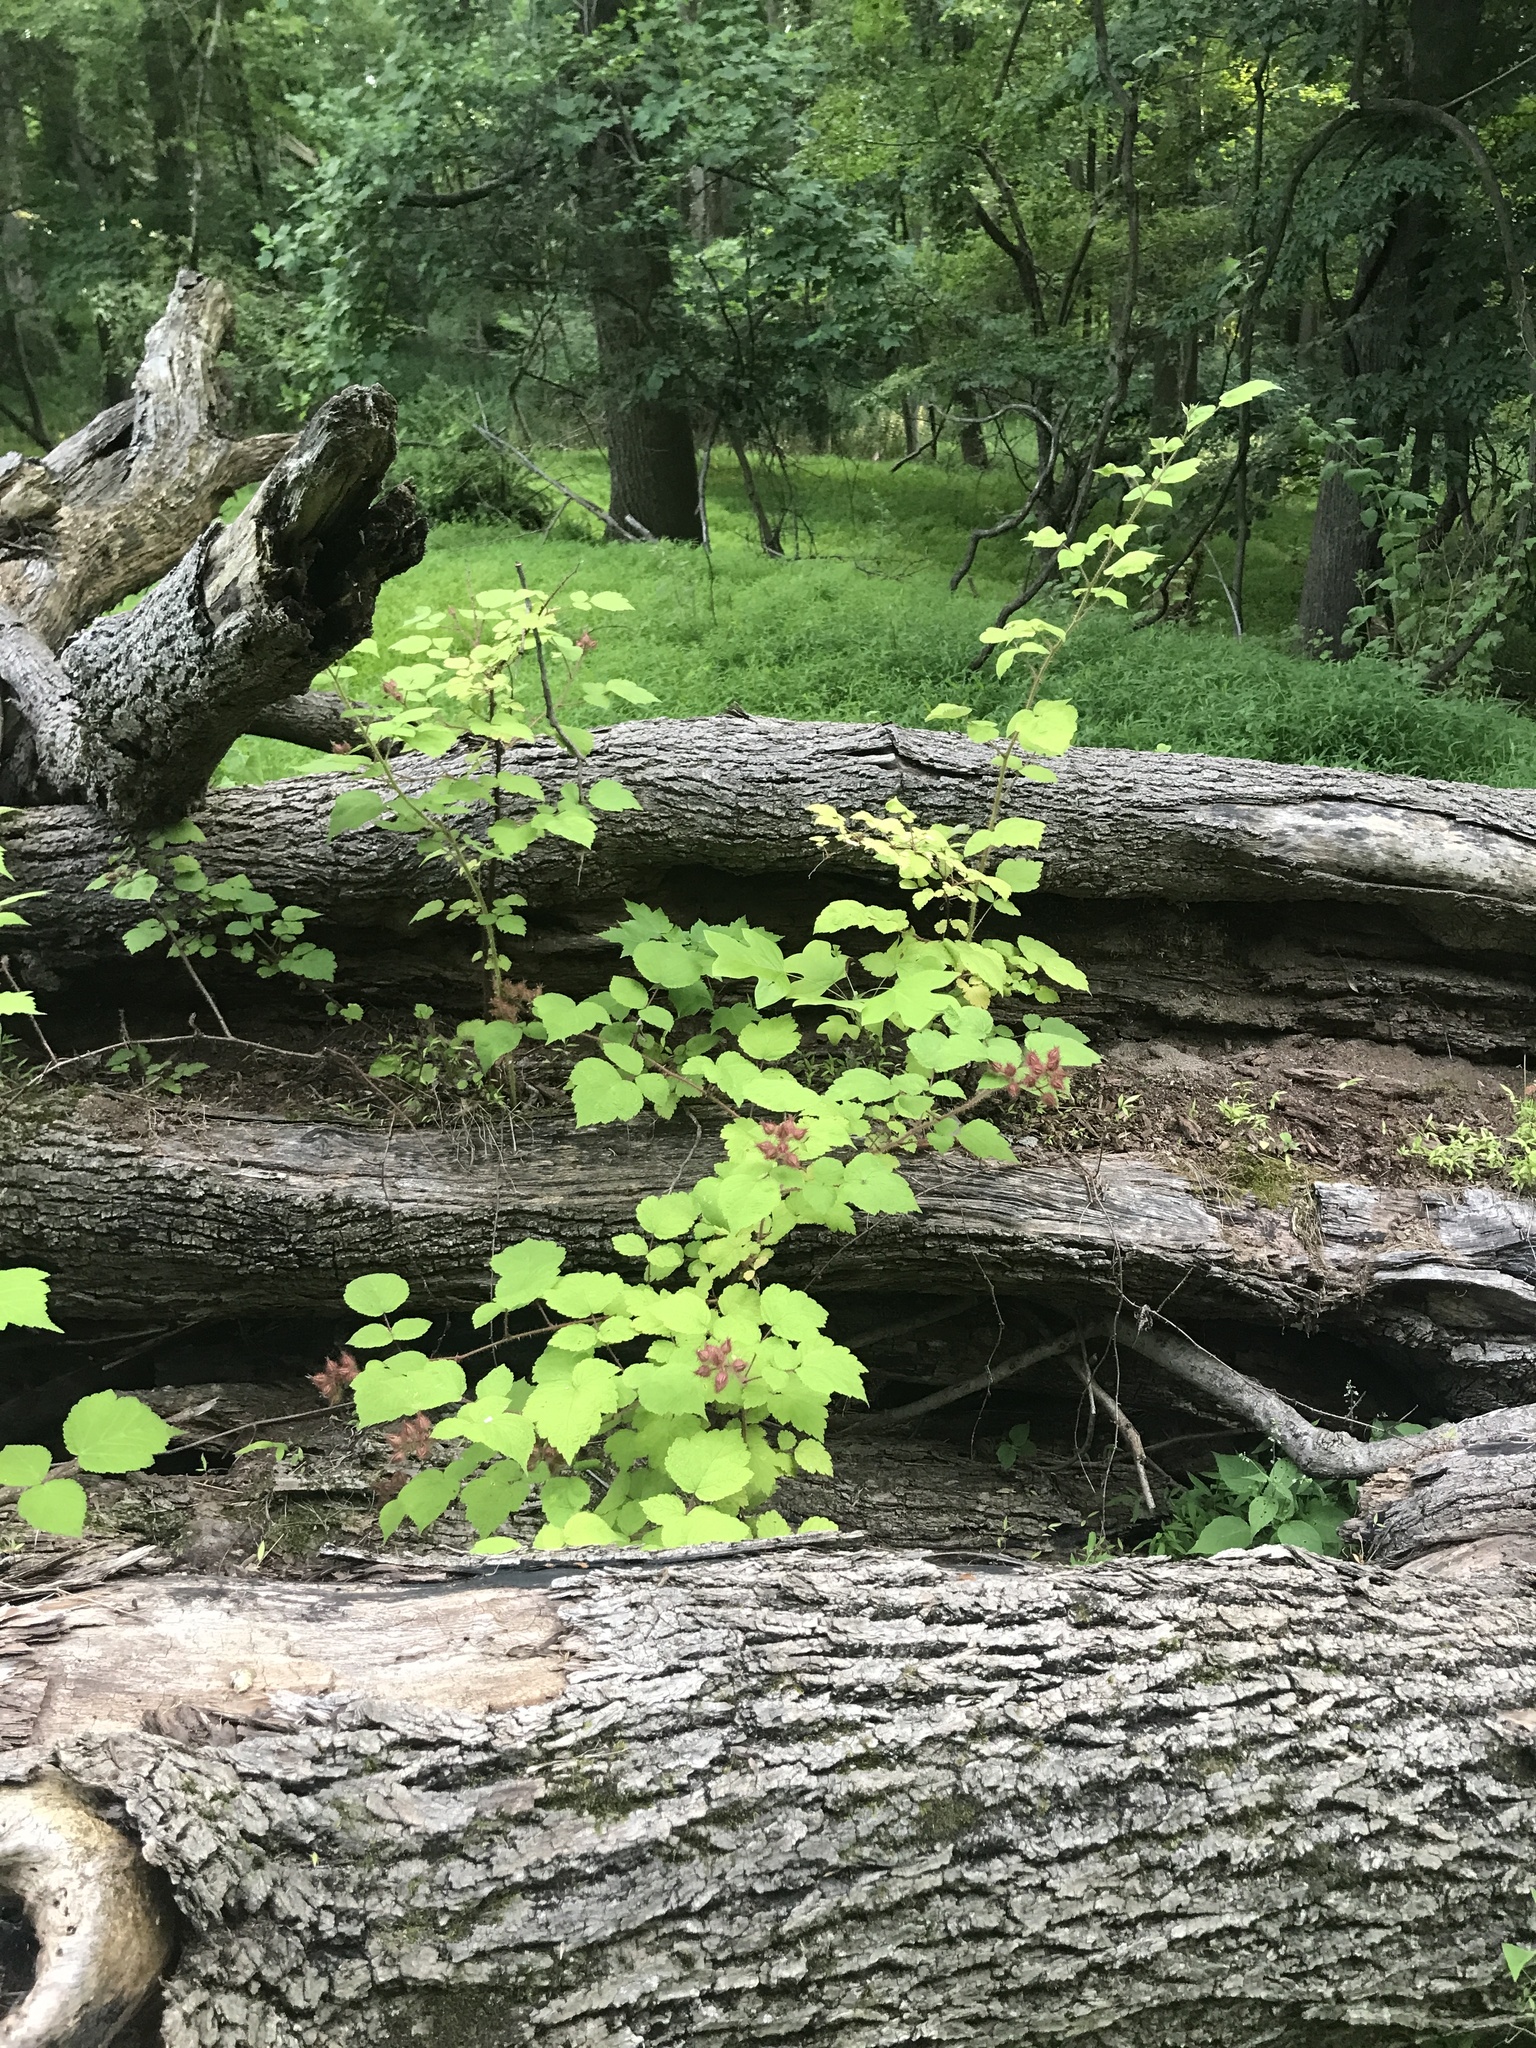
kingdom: Plantae
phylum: Tracheophyta
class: Magnoliopsida
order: Rosales
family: Rosaceae
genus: Rubus
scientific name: Rubus phoenicolasius
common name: Japanese wineberry
